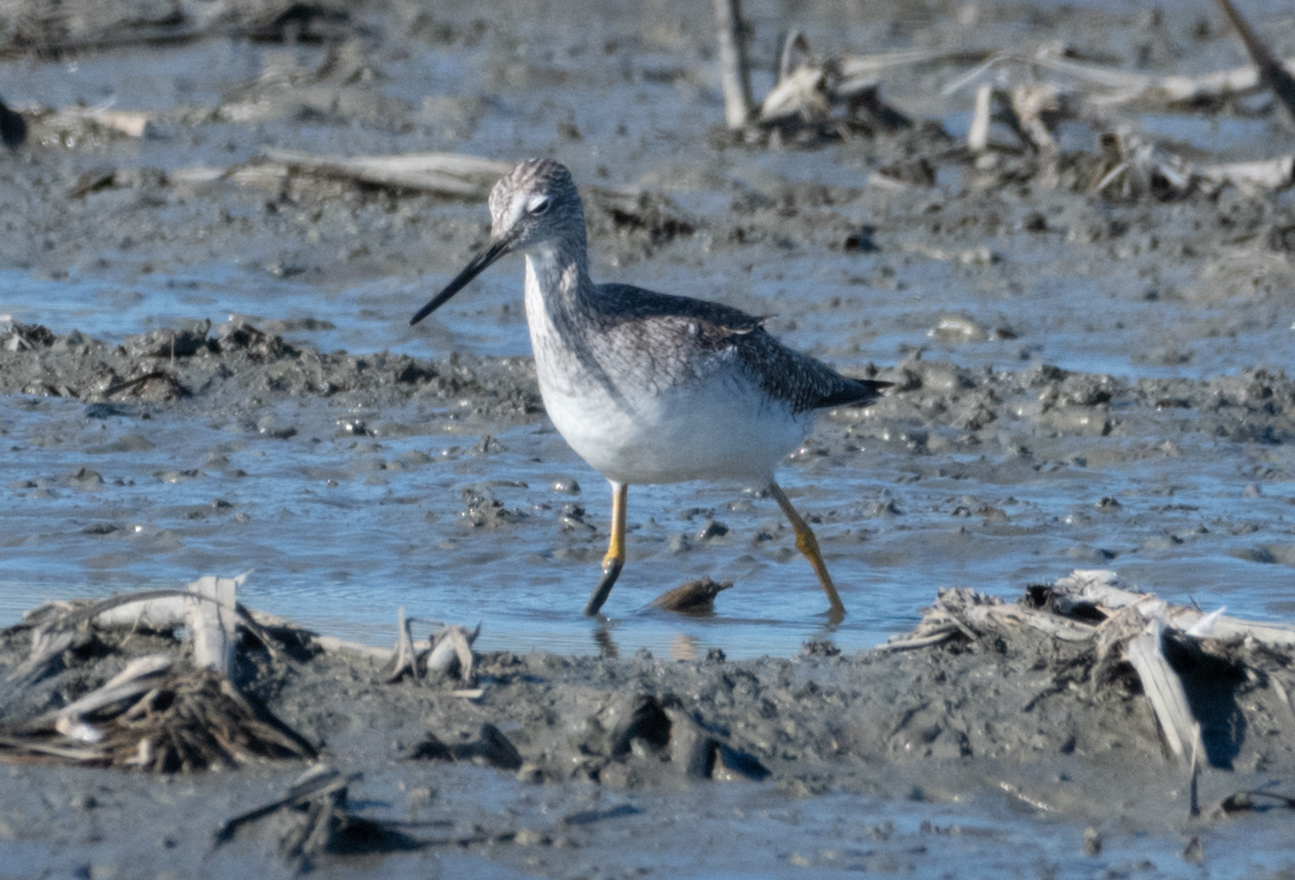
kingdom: Animalia
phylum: Chordata
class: Aves
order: Charadriiformes
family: Scolopacidae
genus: Tringa
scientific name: Tringa melanoleuca
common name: Greater yellowlegs
